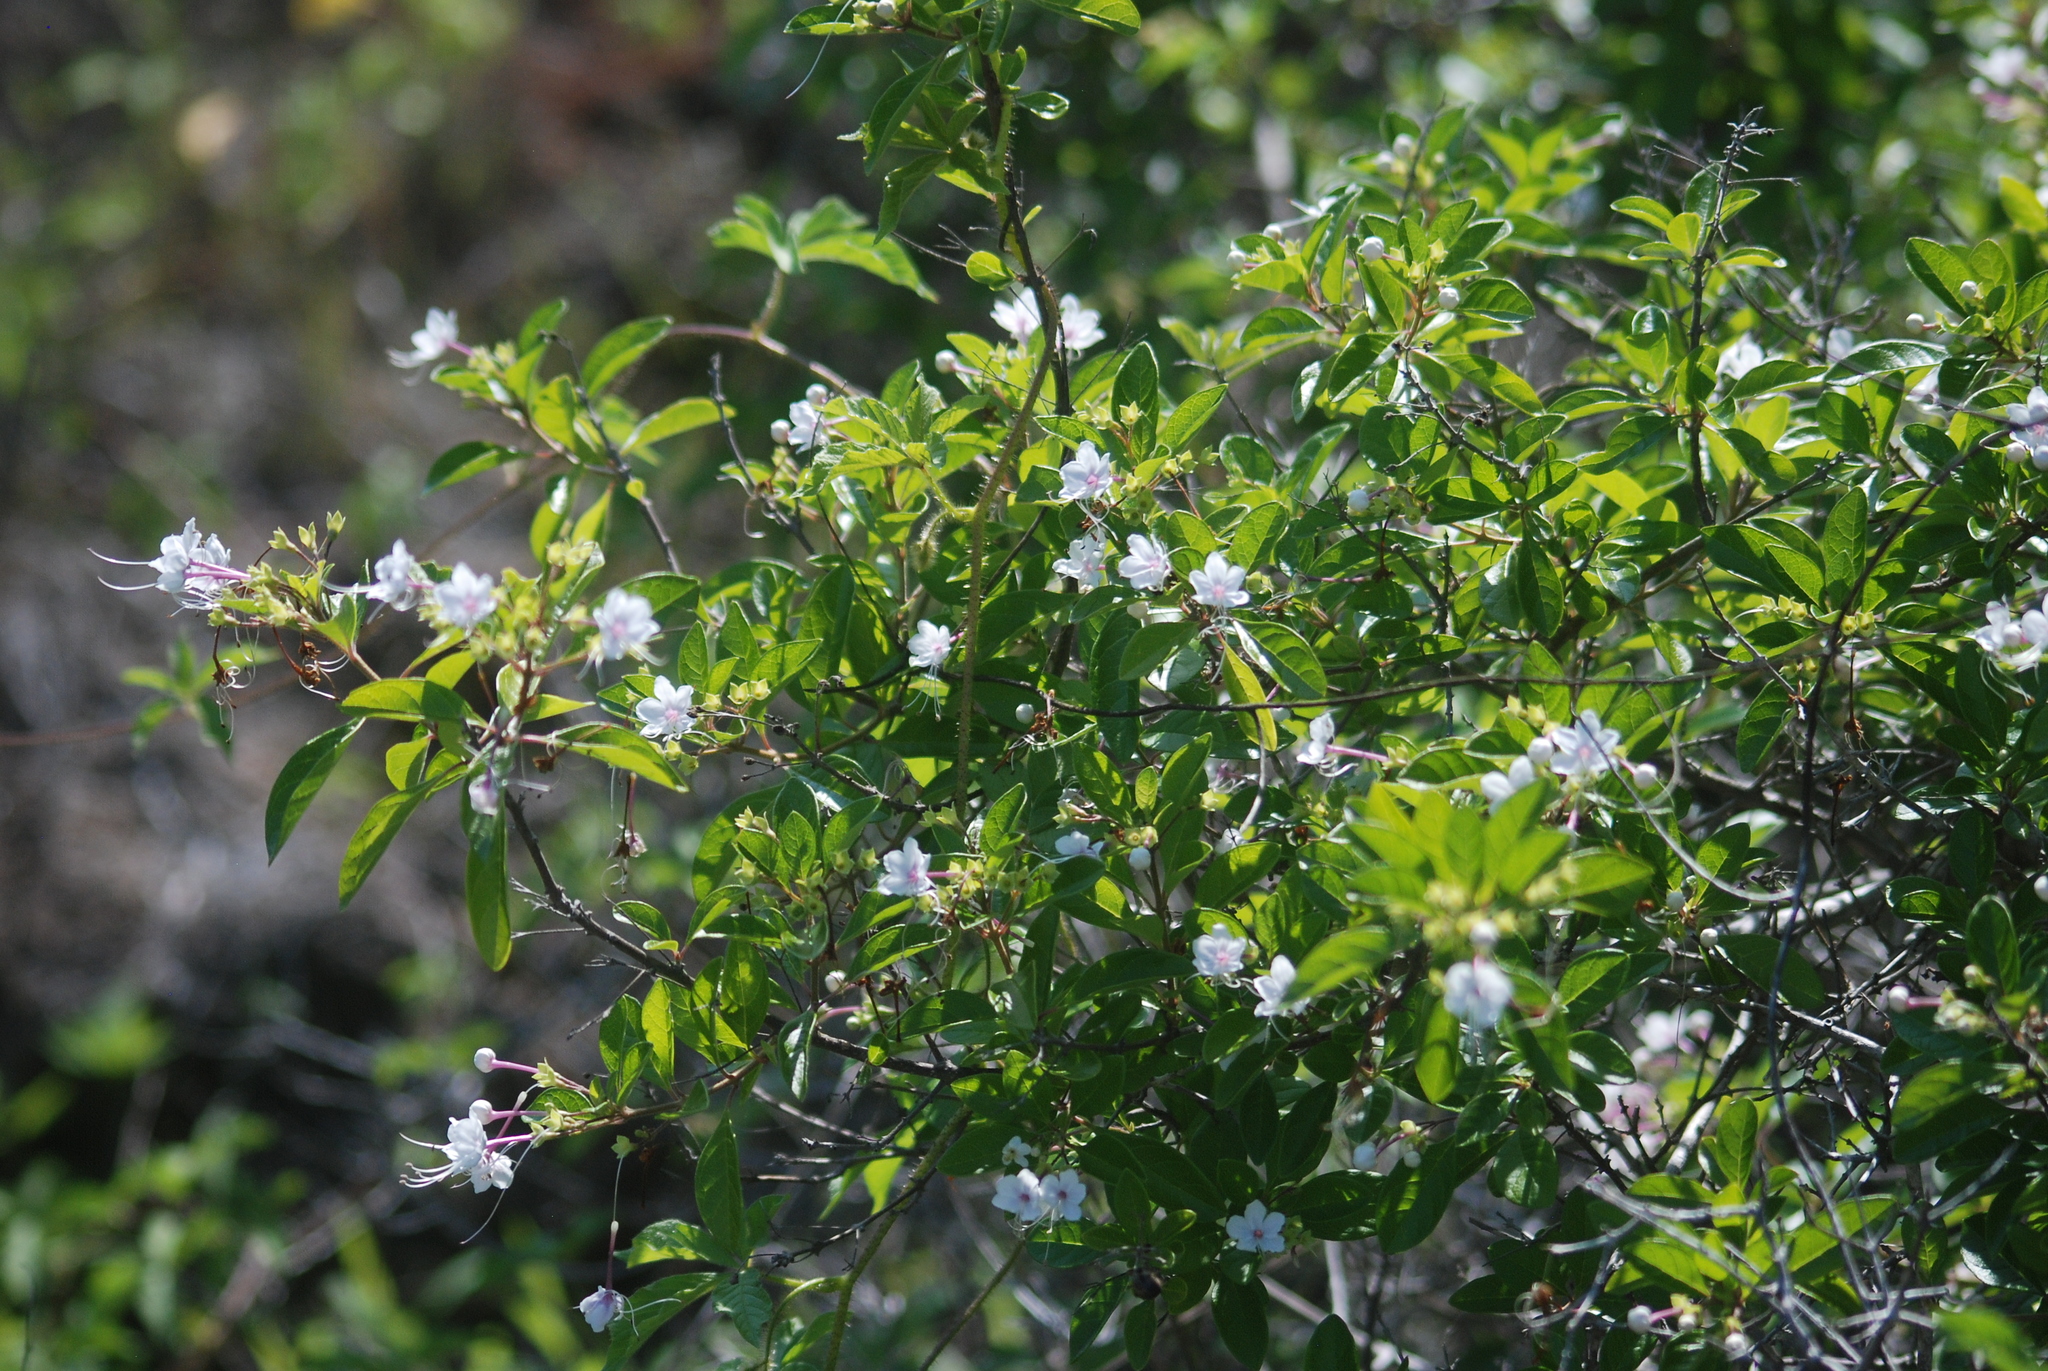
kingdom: Plantae
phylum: Tracheophyta
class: Magnoliopsida
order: Lamiales
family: Lamiaceae
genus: Volkameria
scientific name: Volkameria mollis
